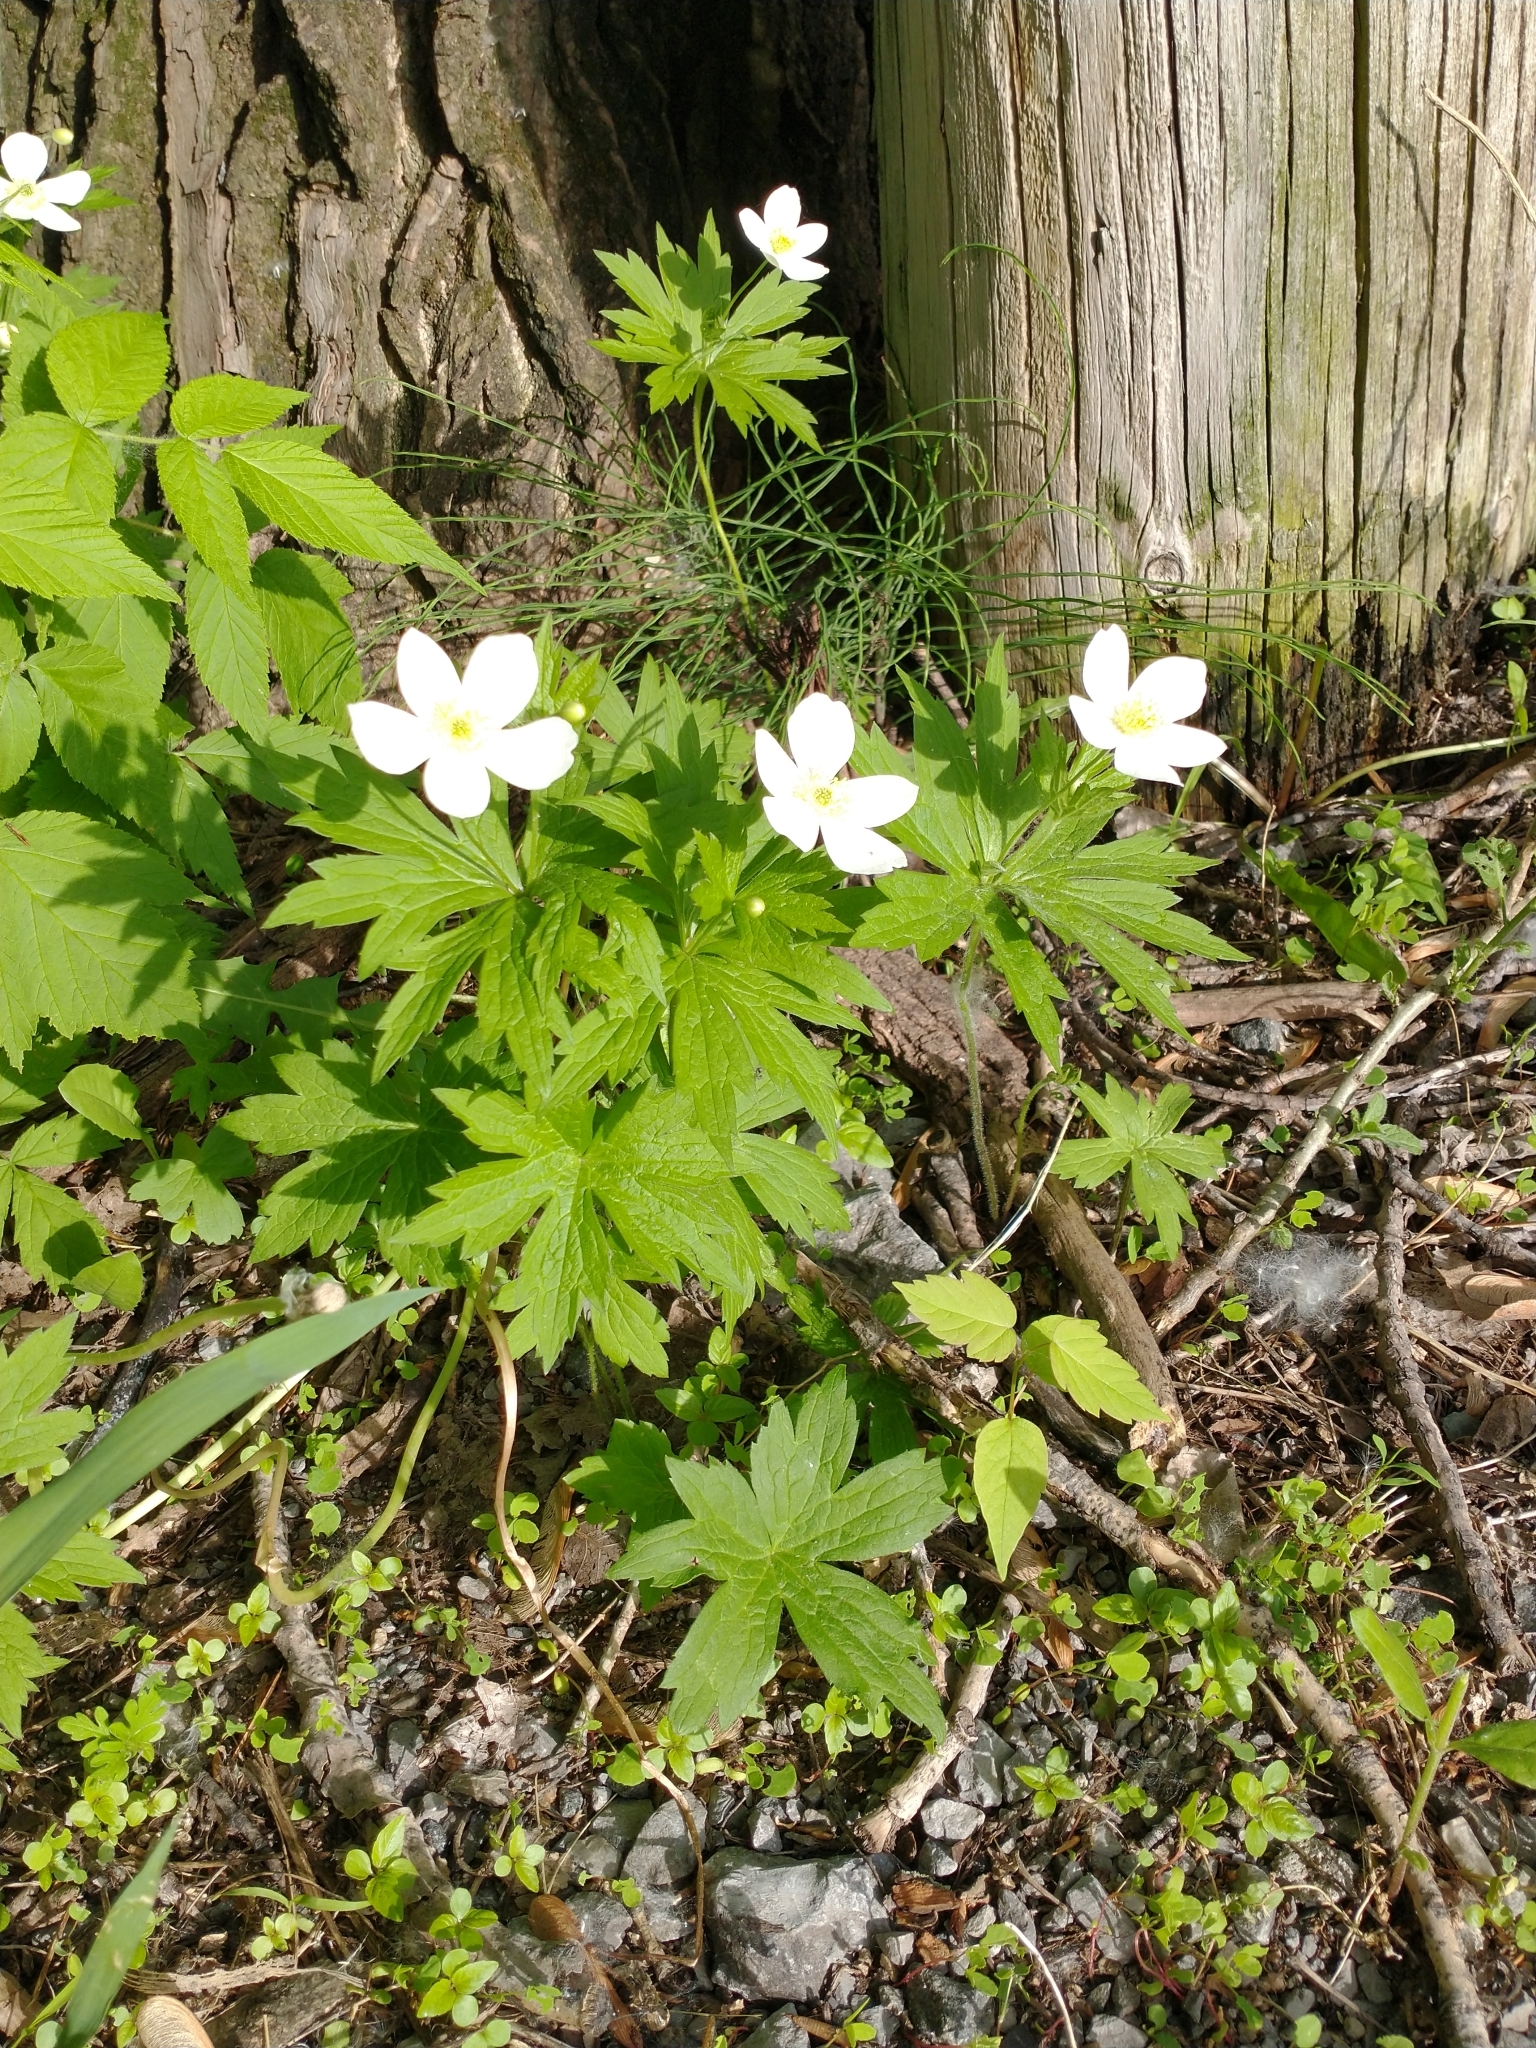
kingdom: Plantae
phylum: Tracheophyta
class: Magnoliopsida
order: Ranunculales
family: Ranunculaceae
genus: Anemonastrum
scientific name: Anemonastrum canadense
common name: Canada anemone
